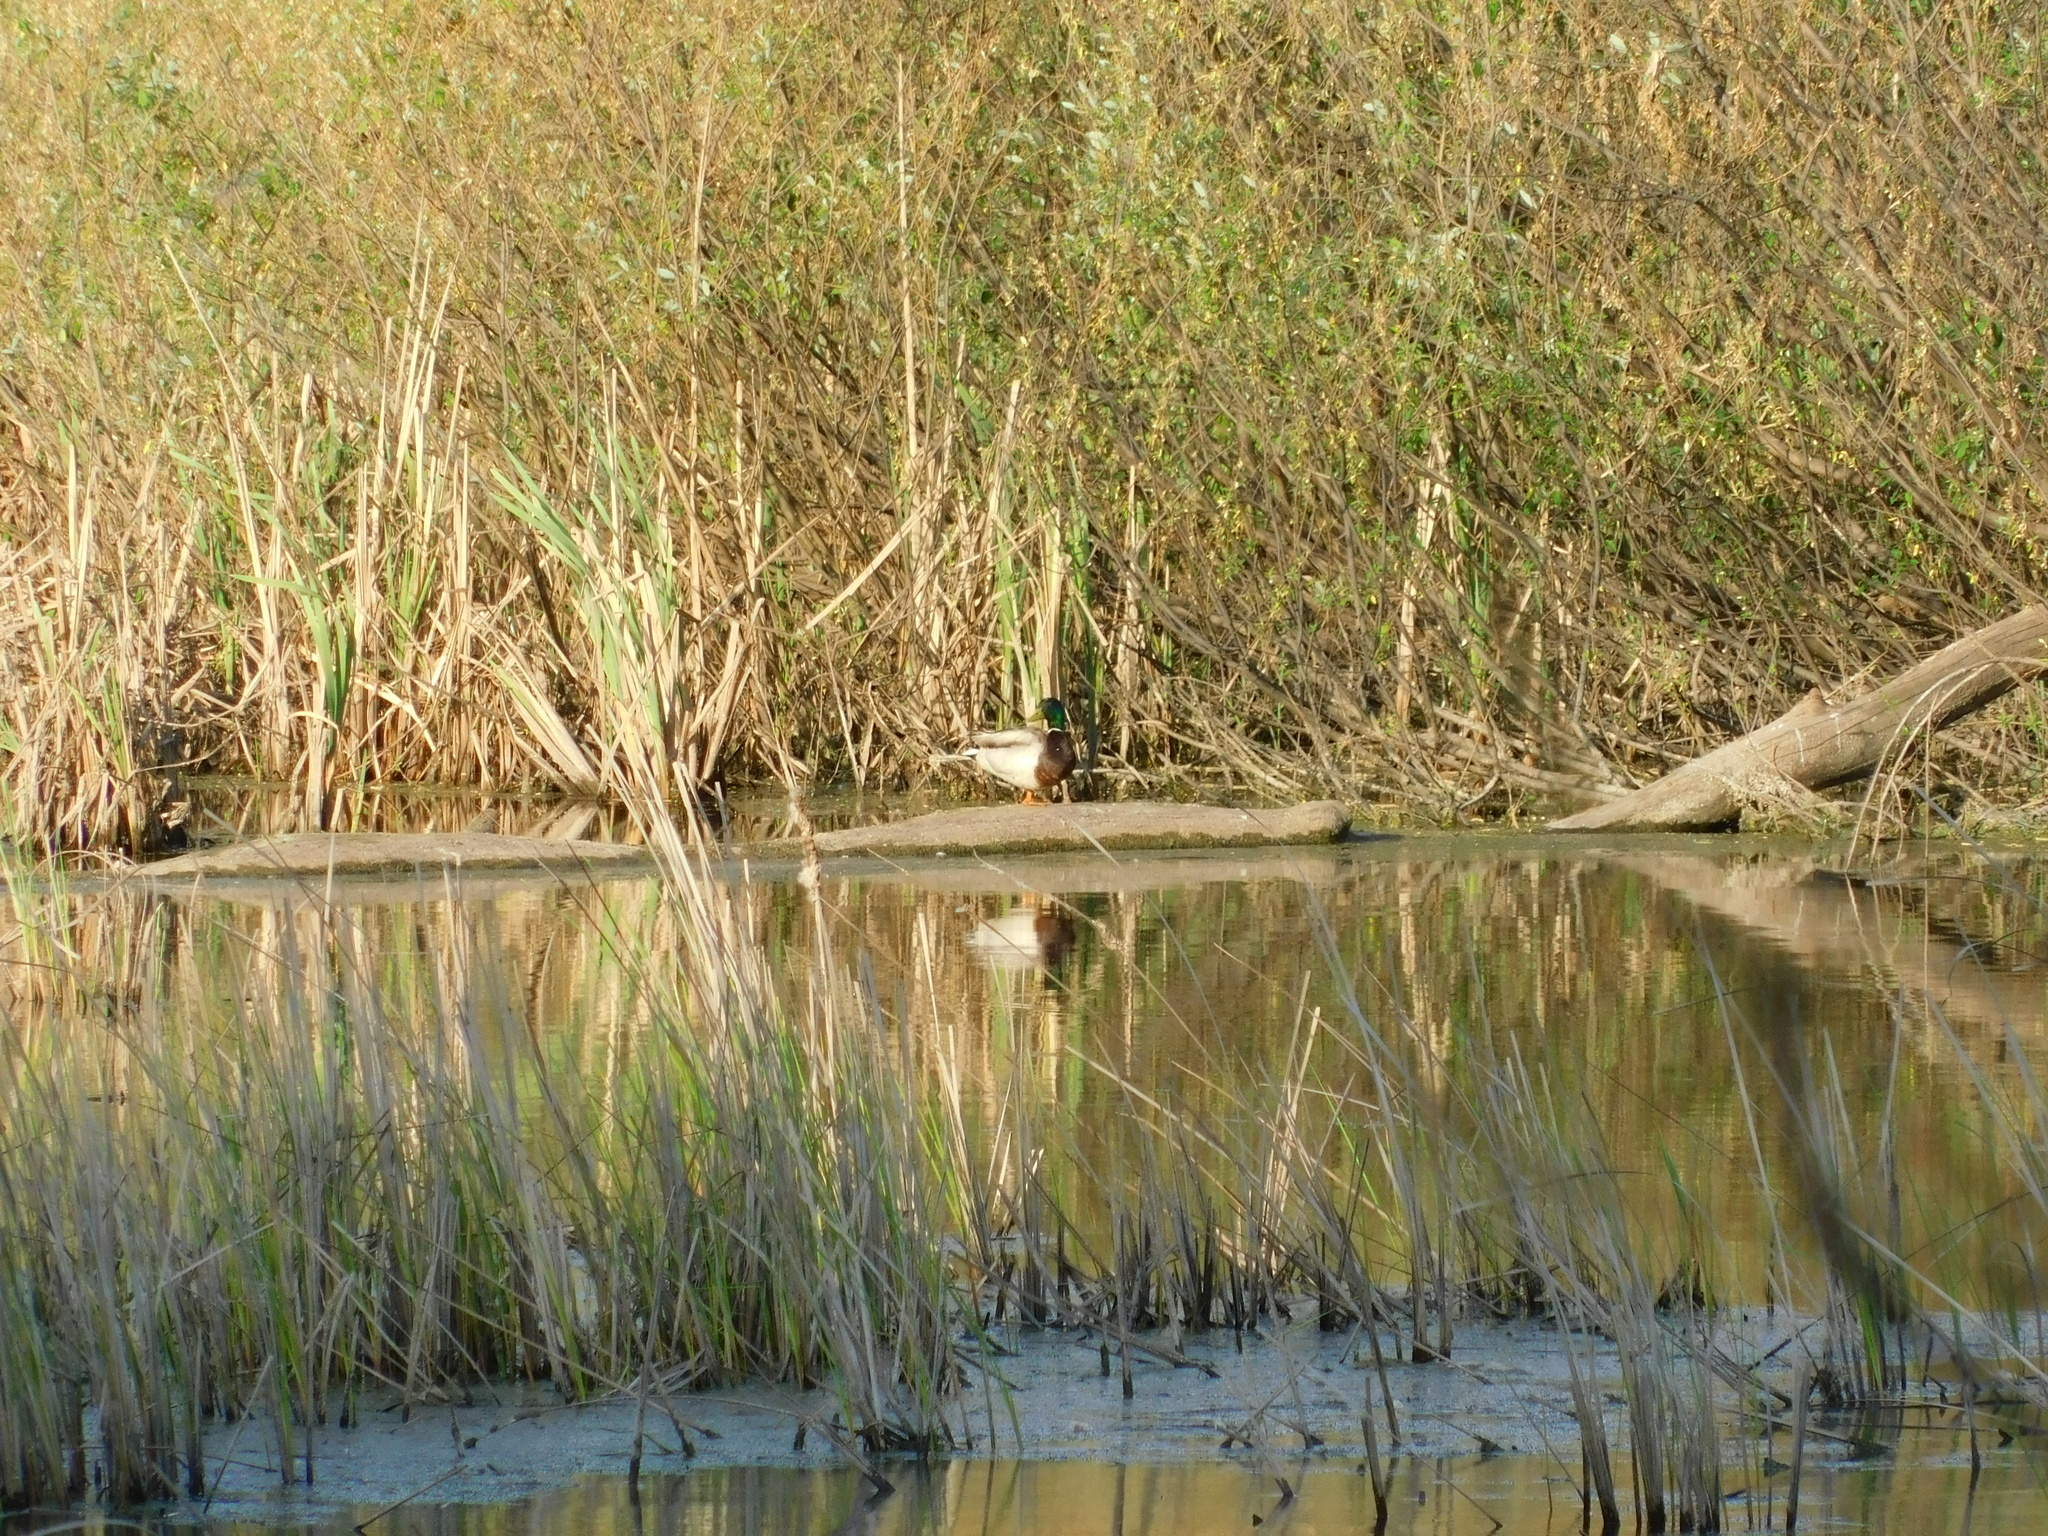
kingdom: Animalia
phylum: Chordata
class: Aves
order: Anseriformes
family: Anatidae
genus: Anas
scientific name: Anas platyrhynchos
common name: Mallard
